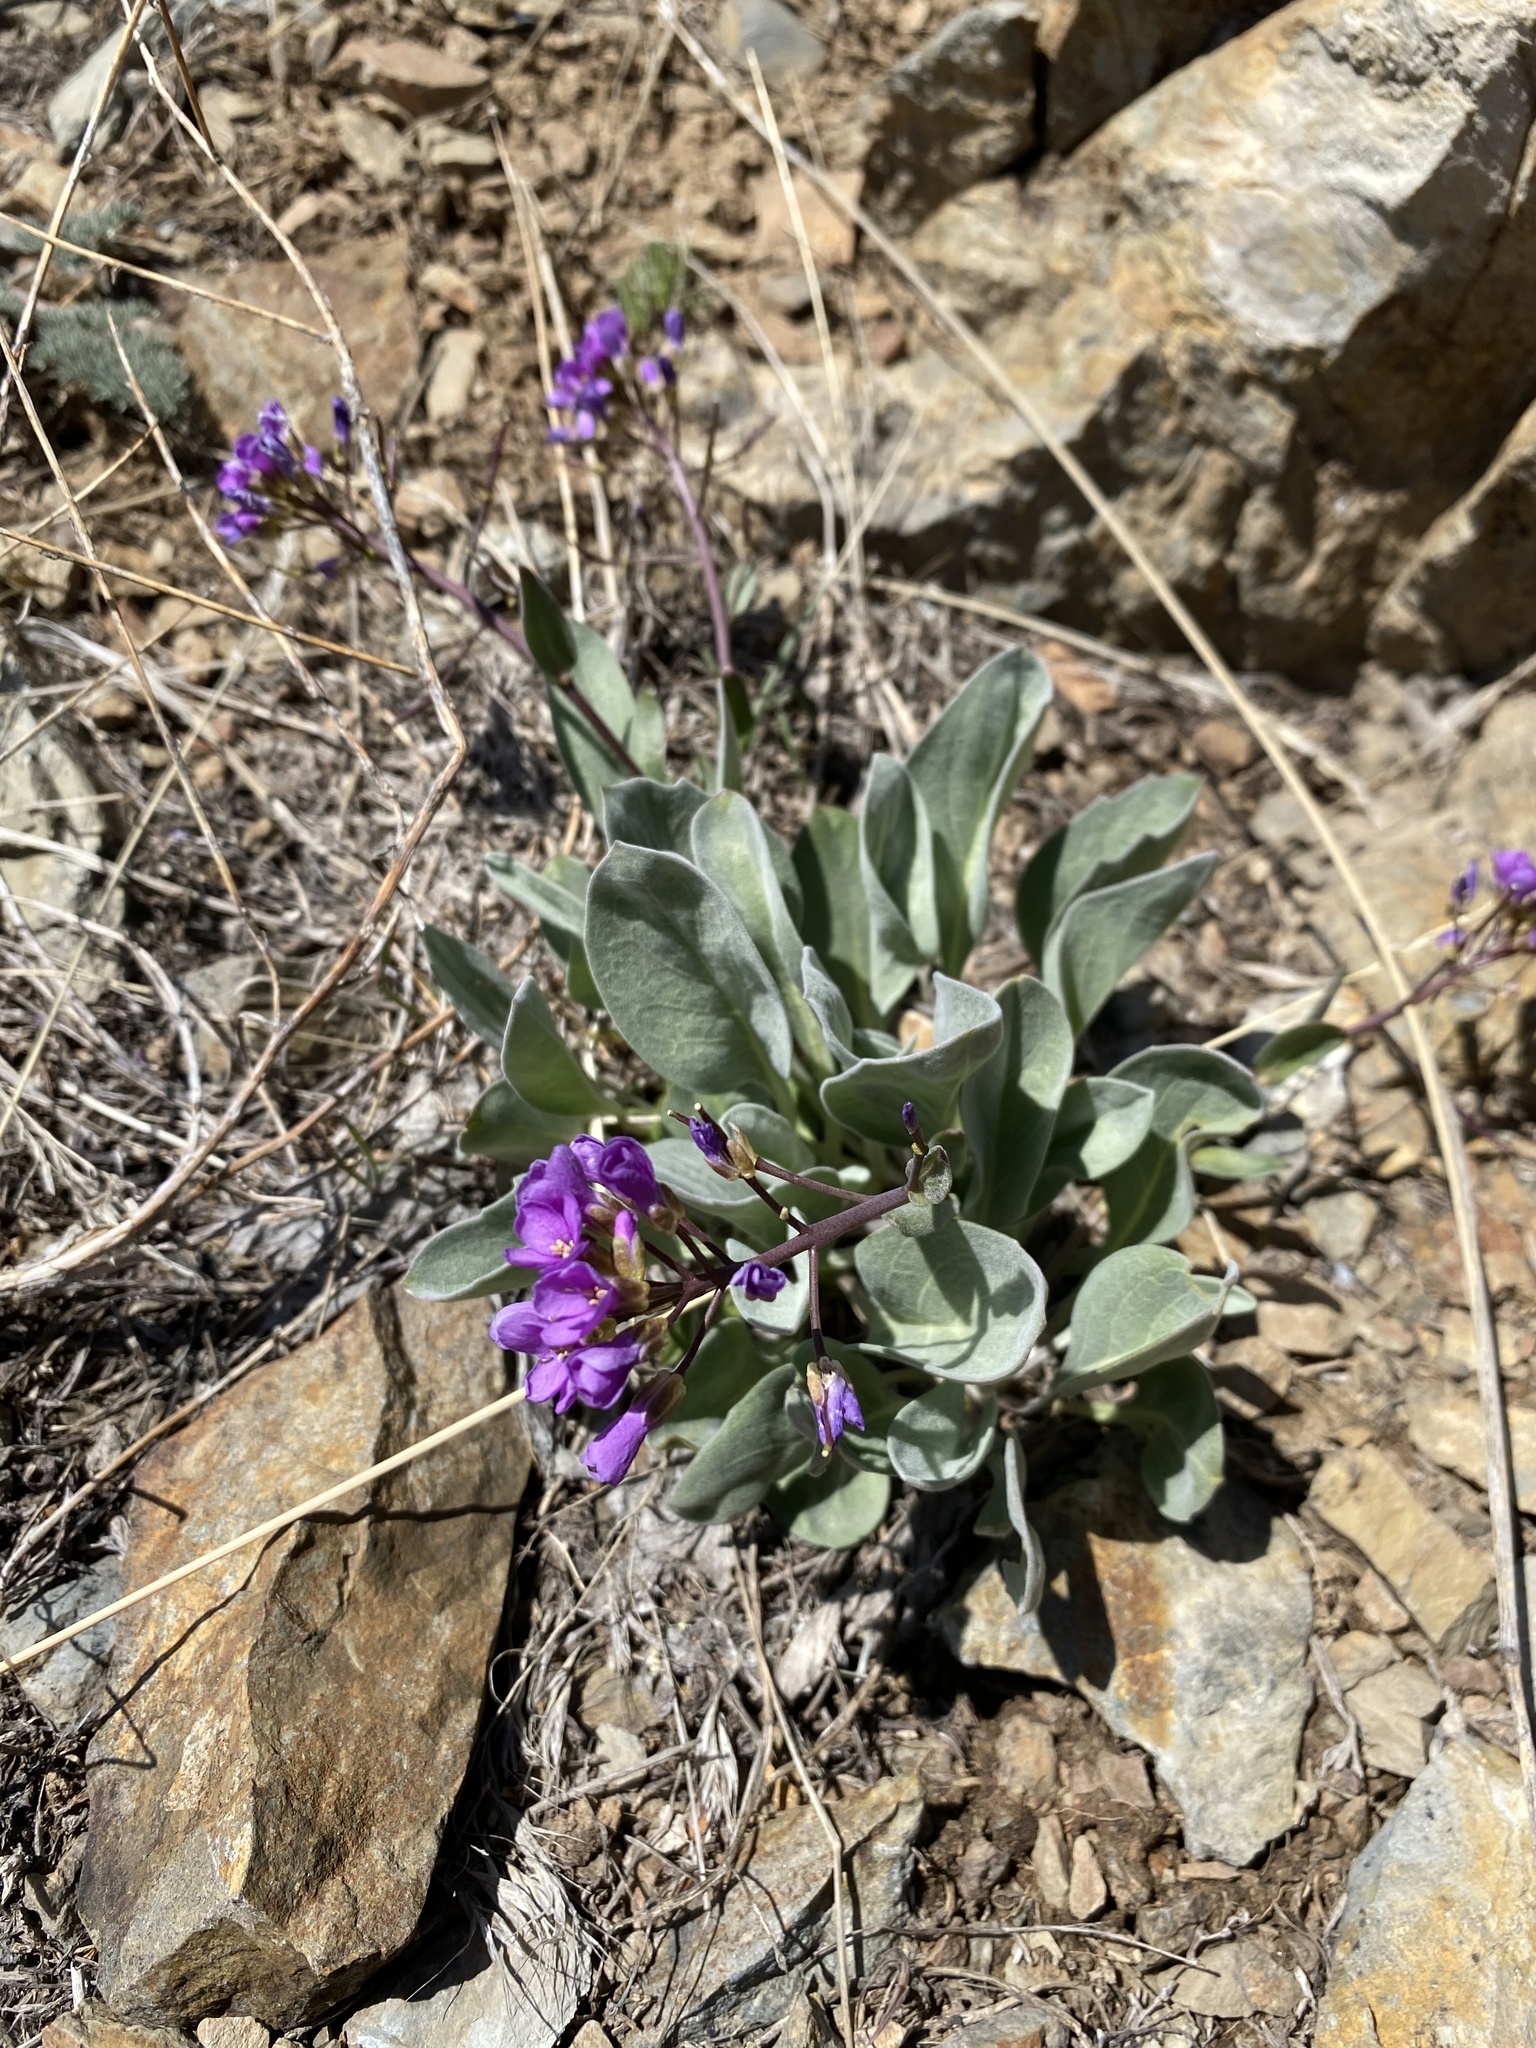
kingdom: Plantae
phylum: Tracheophyta
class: Magnoliopsida
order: Brassicales
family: Brassicaceae
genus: Phoenicaulis
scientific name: Phoenicaulis cheiranthoides
